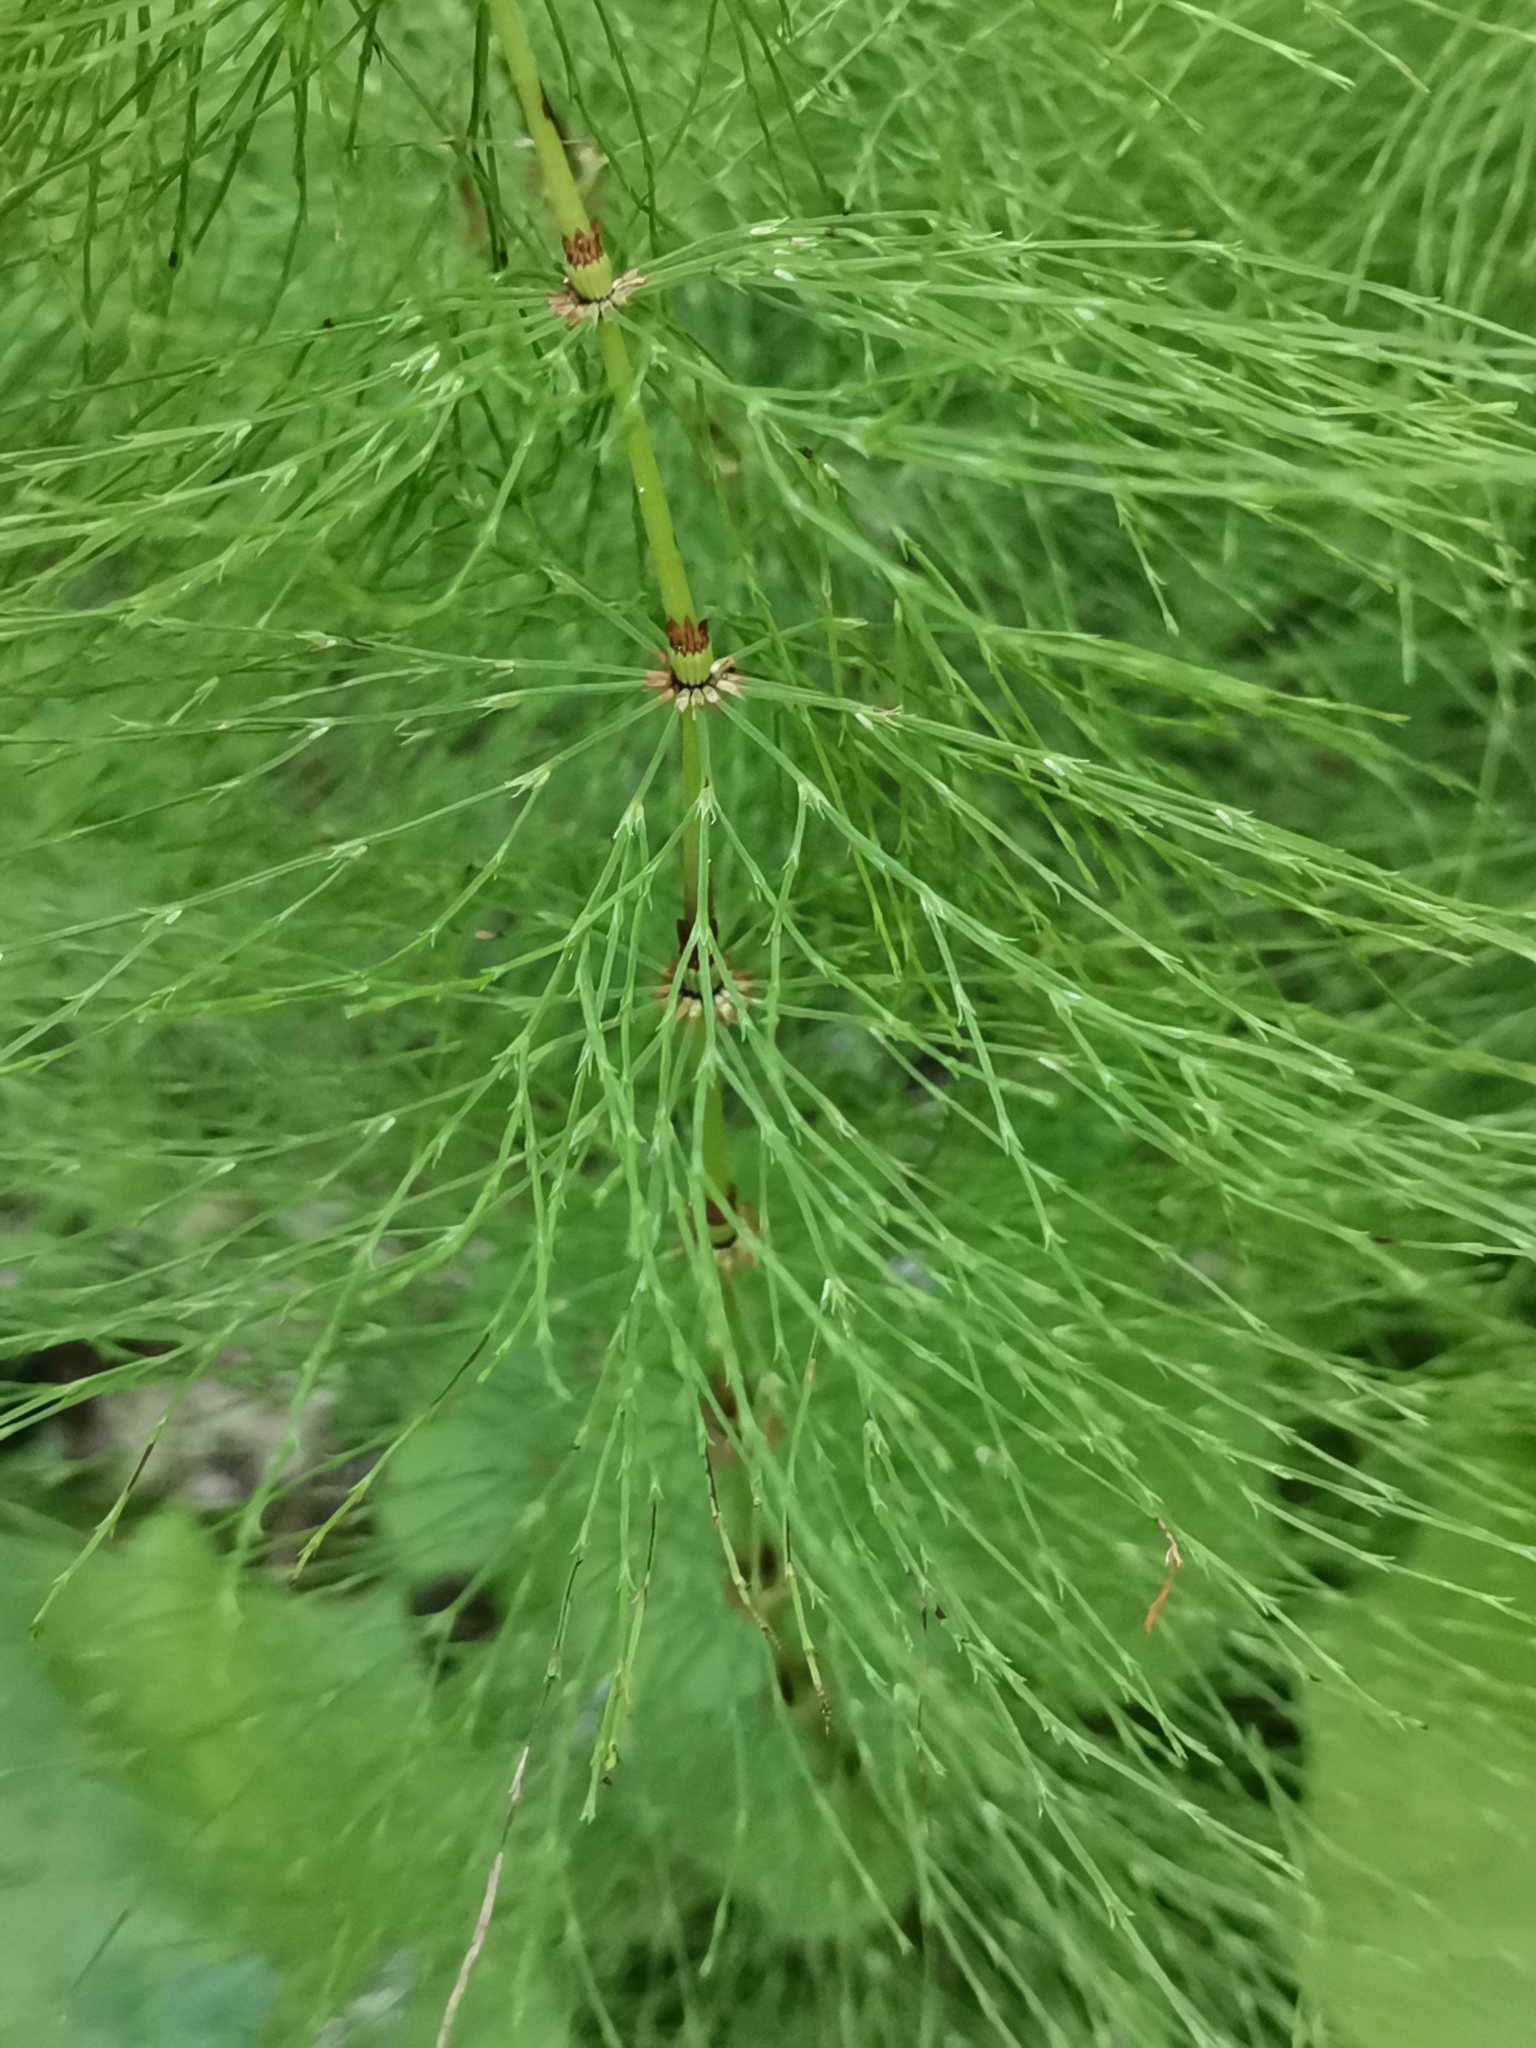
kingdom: Plantae
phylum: Tracheophyta
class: Polypodiopsida
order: Equisetales
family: Equisetaceae
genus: Equisetum
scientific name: Equisetum sylvaticum
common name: Wood horsetail
